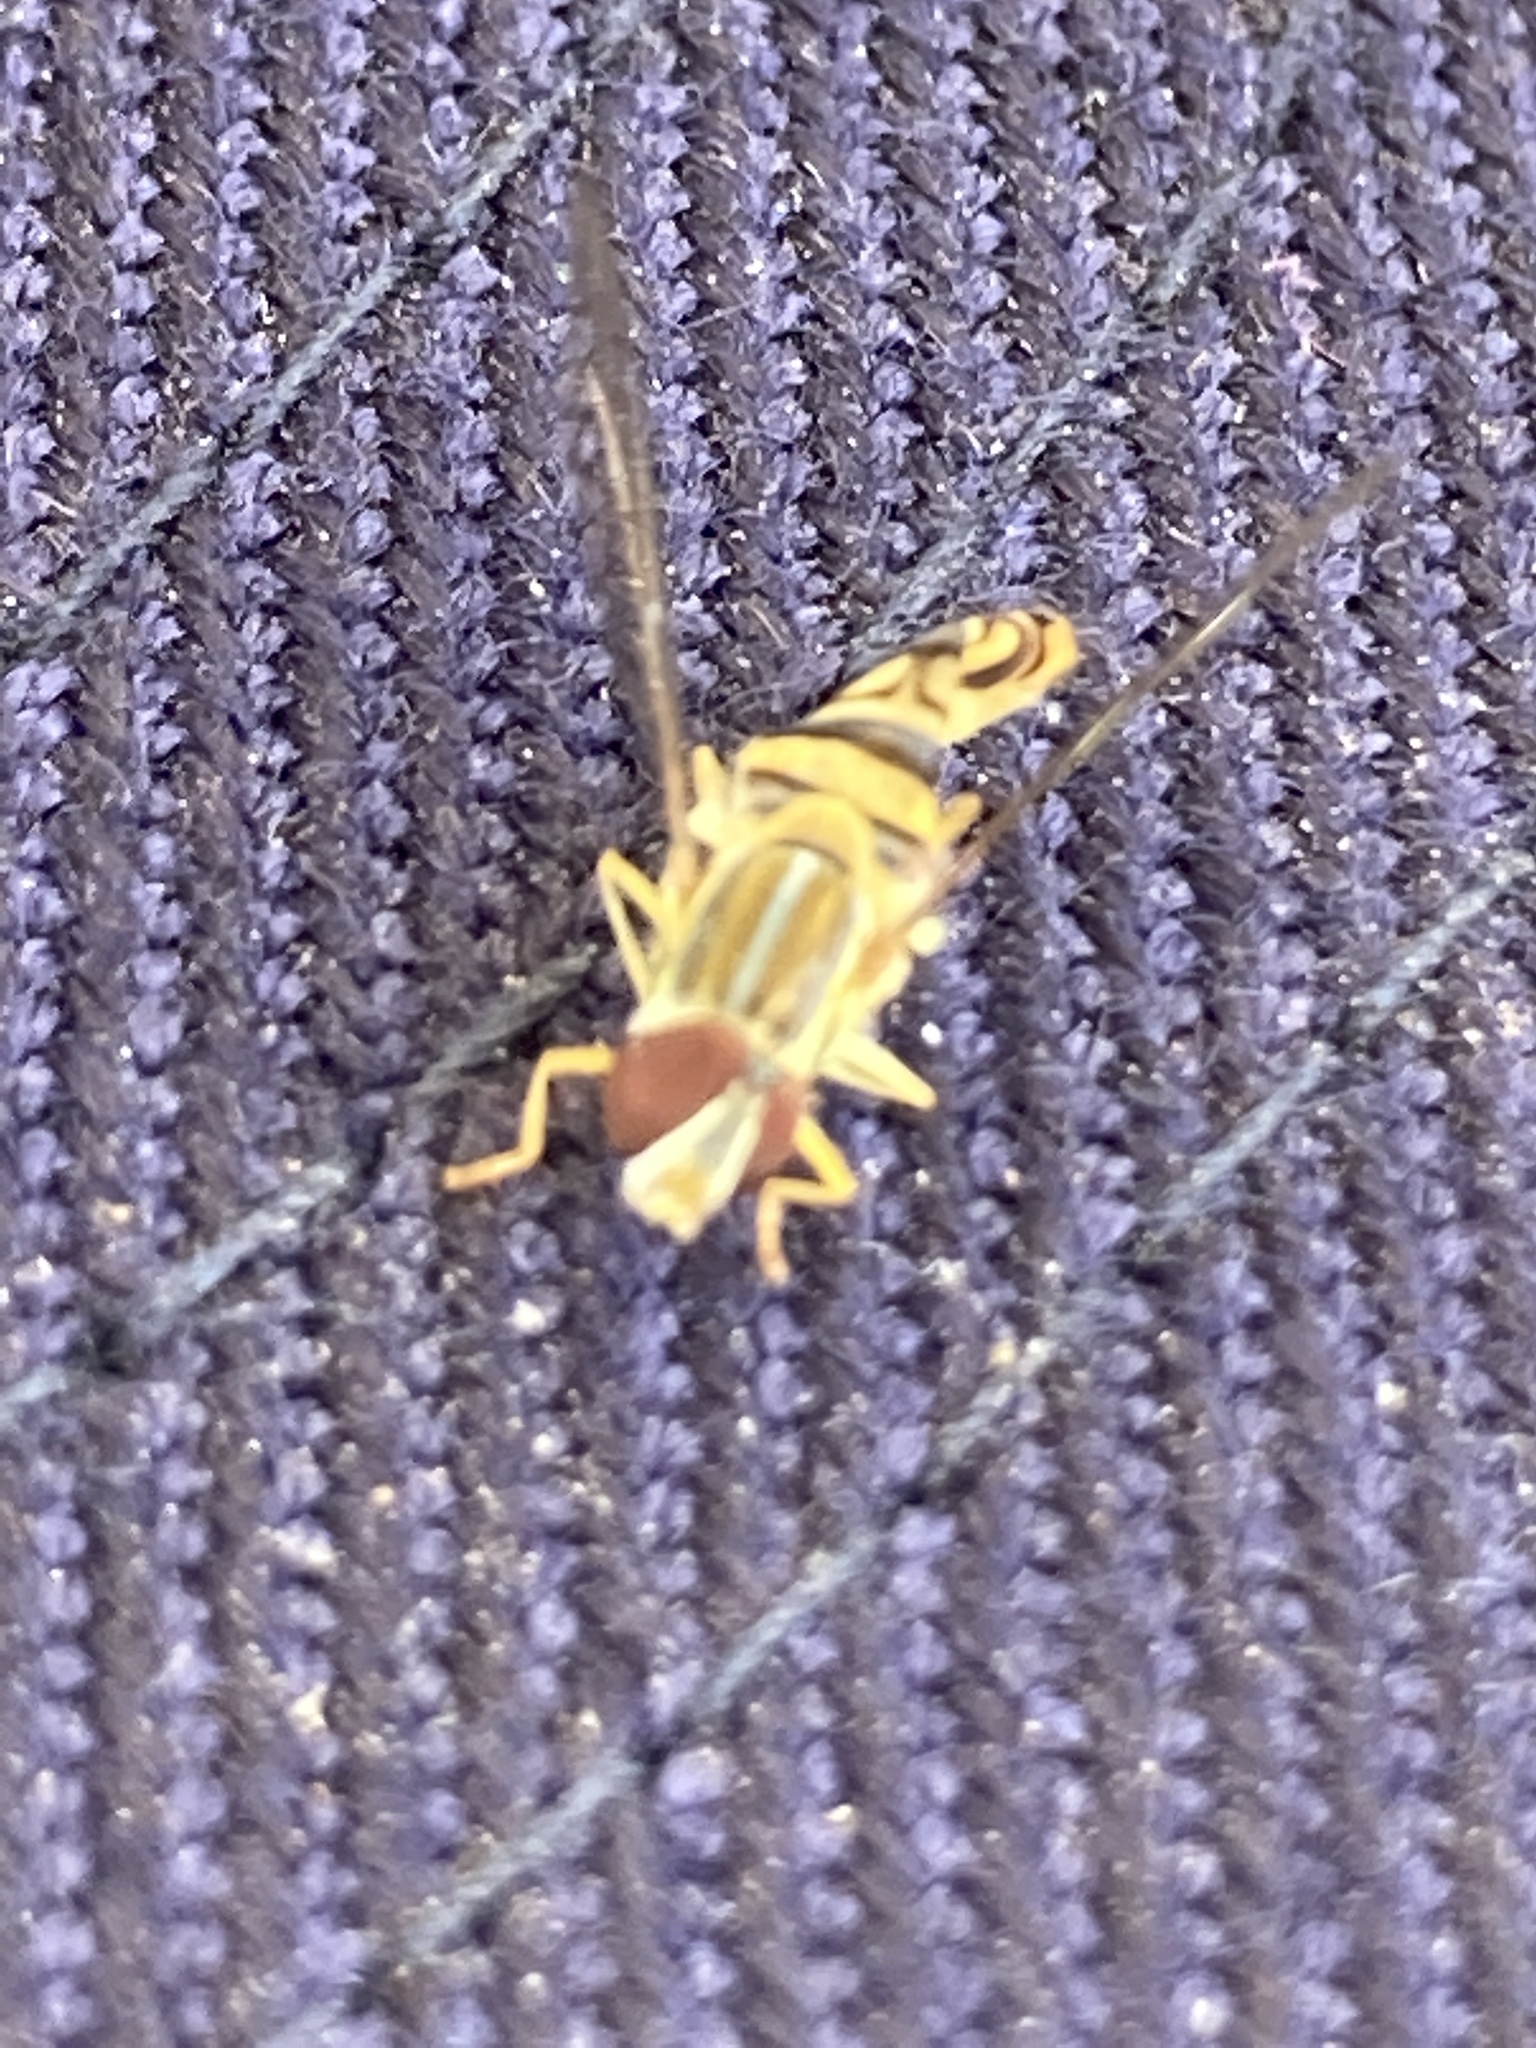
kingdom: Animalia
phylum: Arthropoda
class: Insecta
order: Diptera
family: Syrphidae
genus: Toxomerus
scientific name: Toxomerus politus
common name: Maize calligrapher
